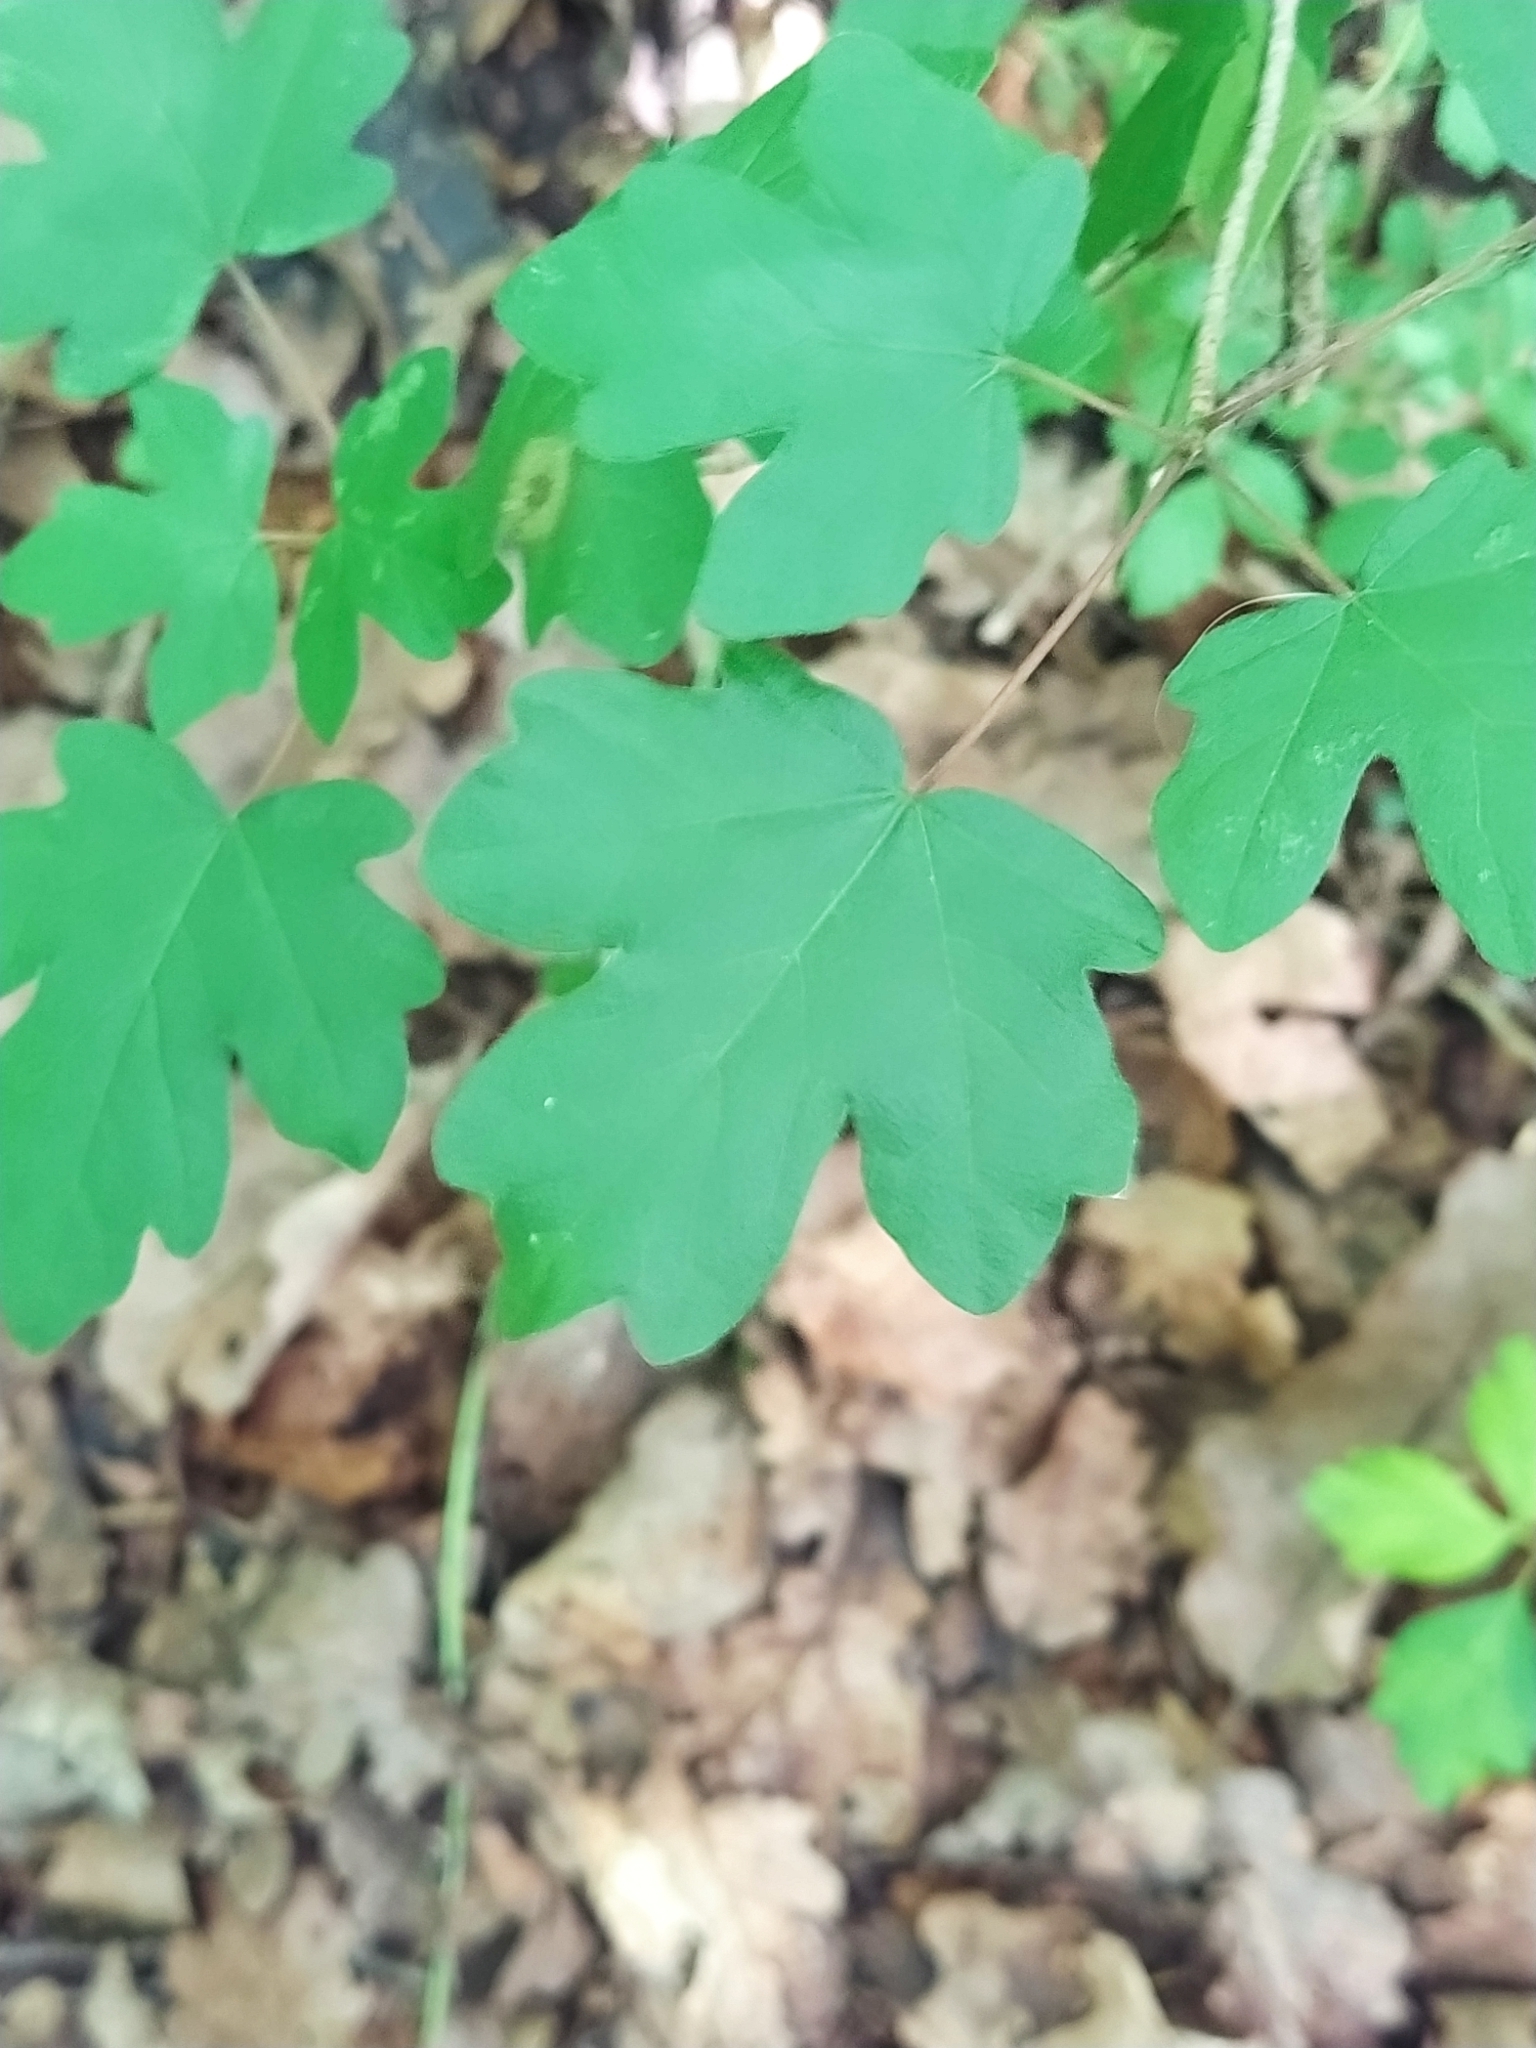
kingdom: Plantae
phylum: Tracheophyta
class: Magnoliopsida
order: Sapindales
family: Sapindaceae
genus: Acer
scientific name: Acer campestre
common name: Field maple
